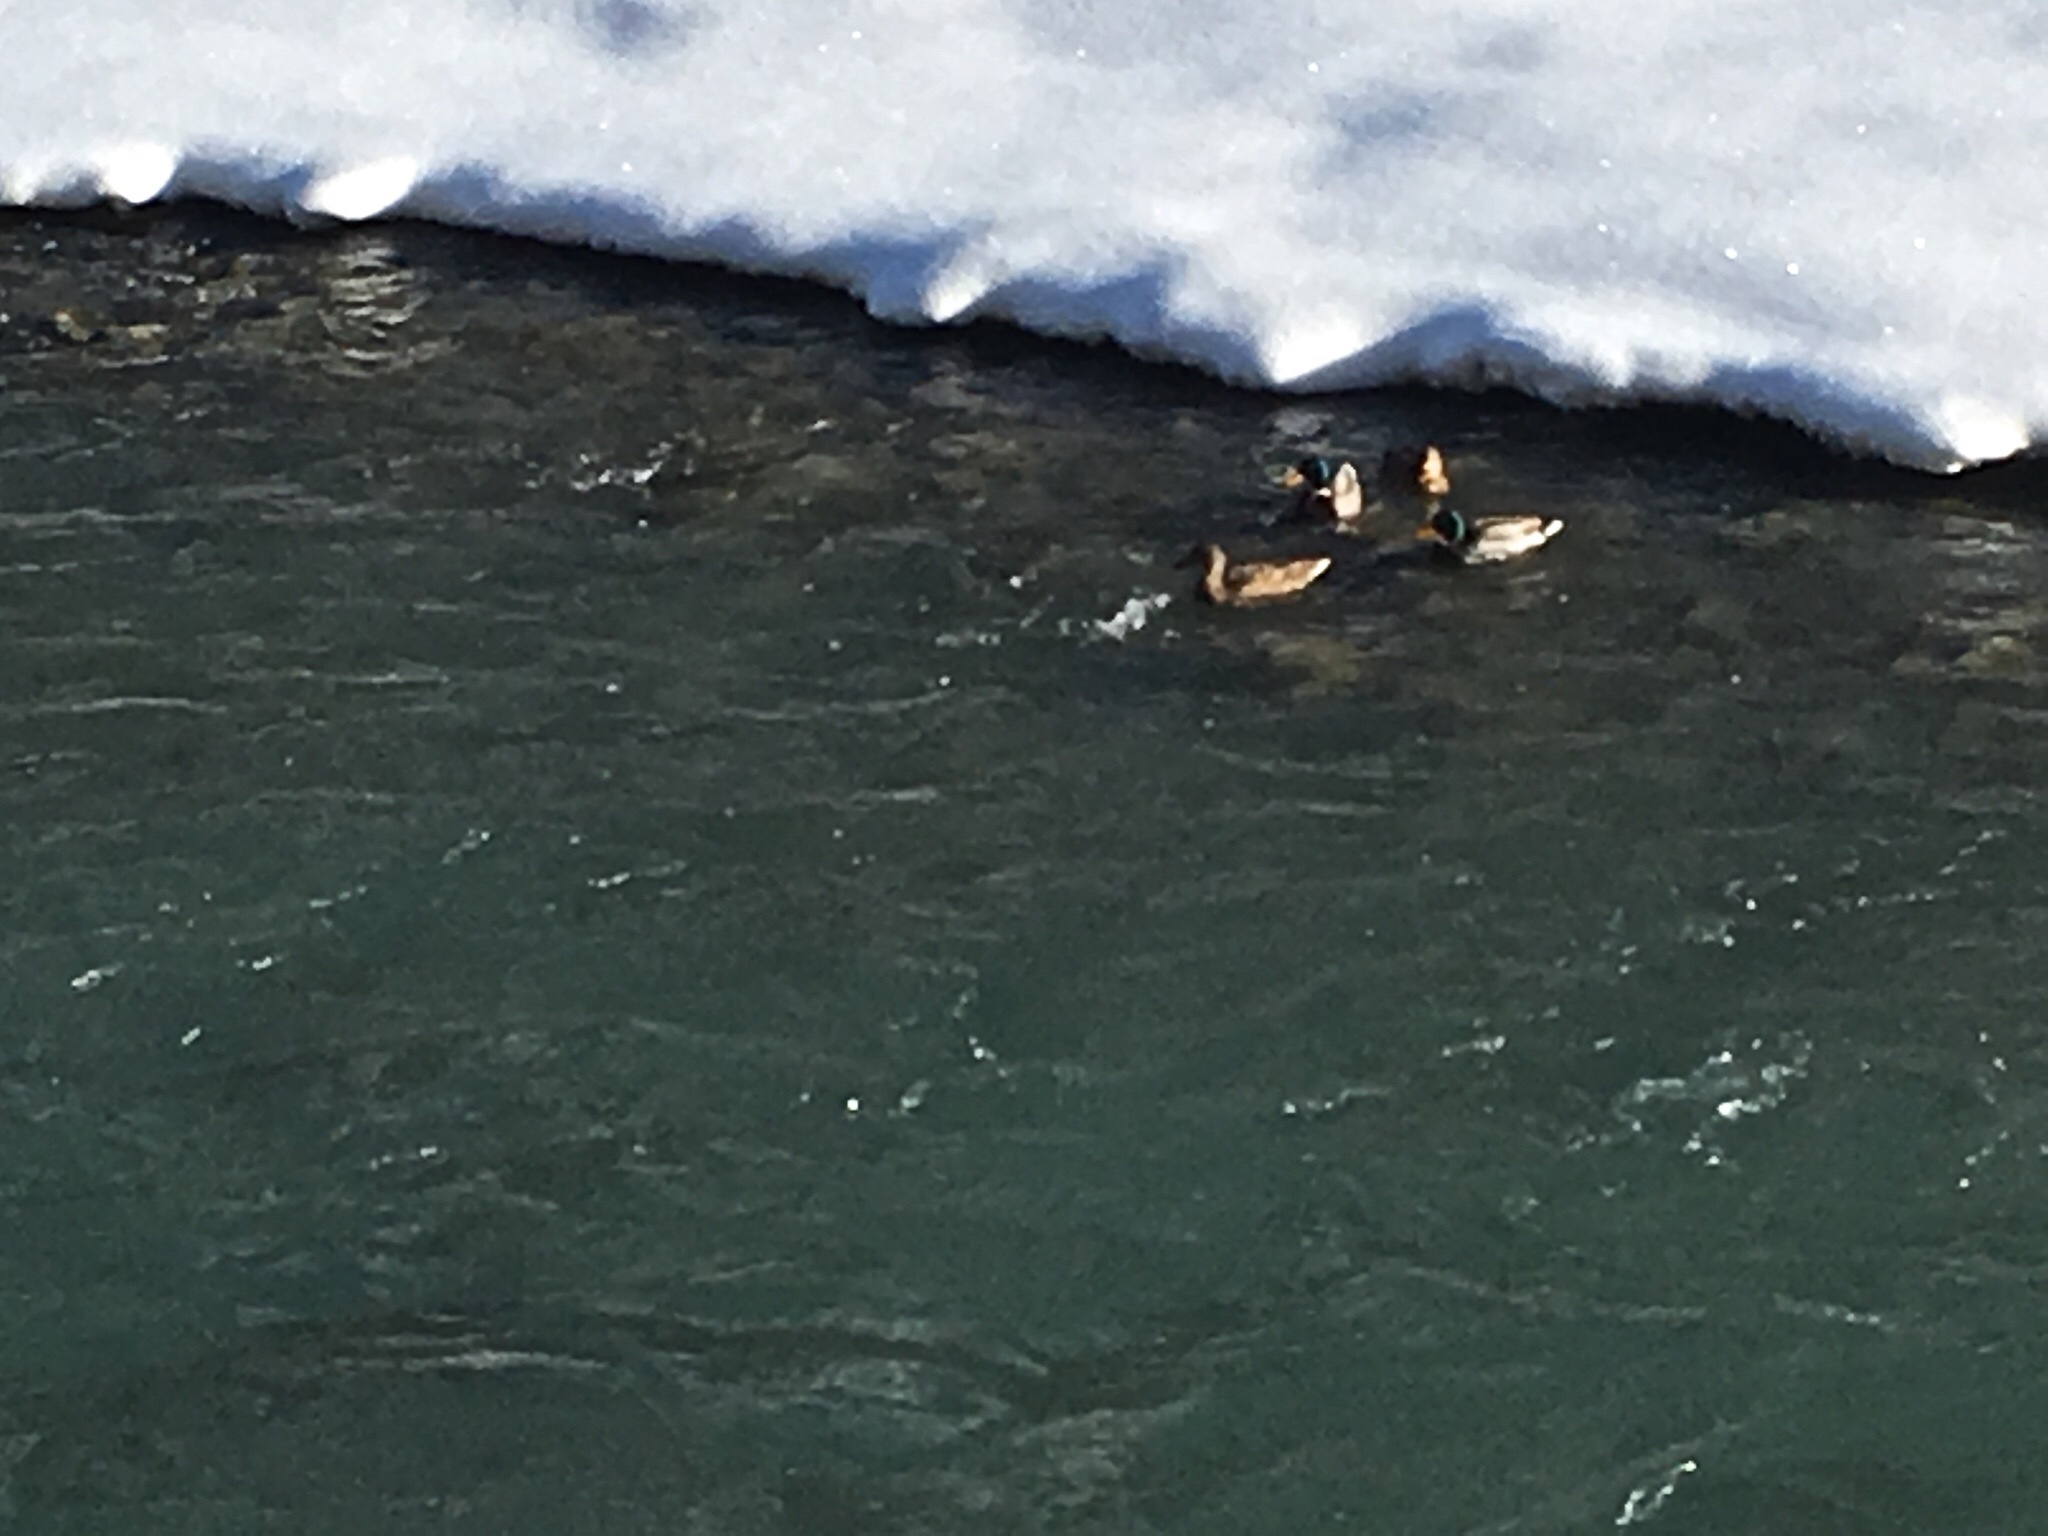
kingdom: Animalia
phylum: Chordata
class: Aves
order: Anseriformes
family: Anatidae
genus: Anas
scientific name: Anas platyrhynchos
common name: Mallard
